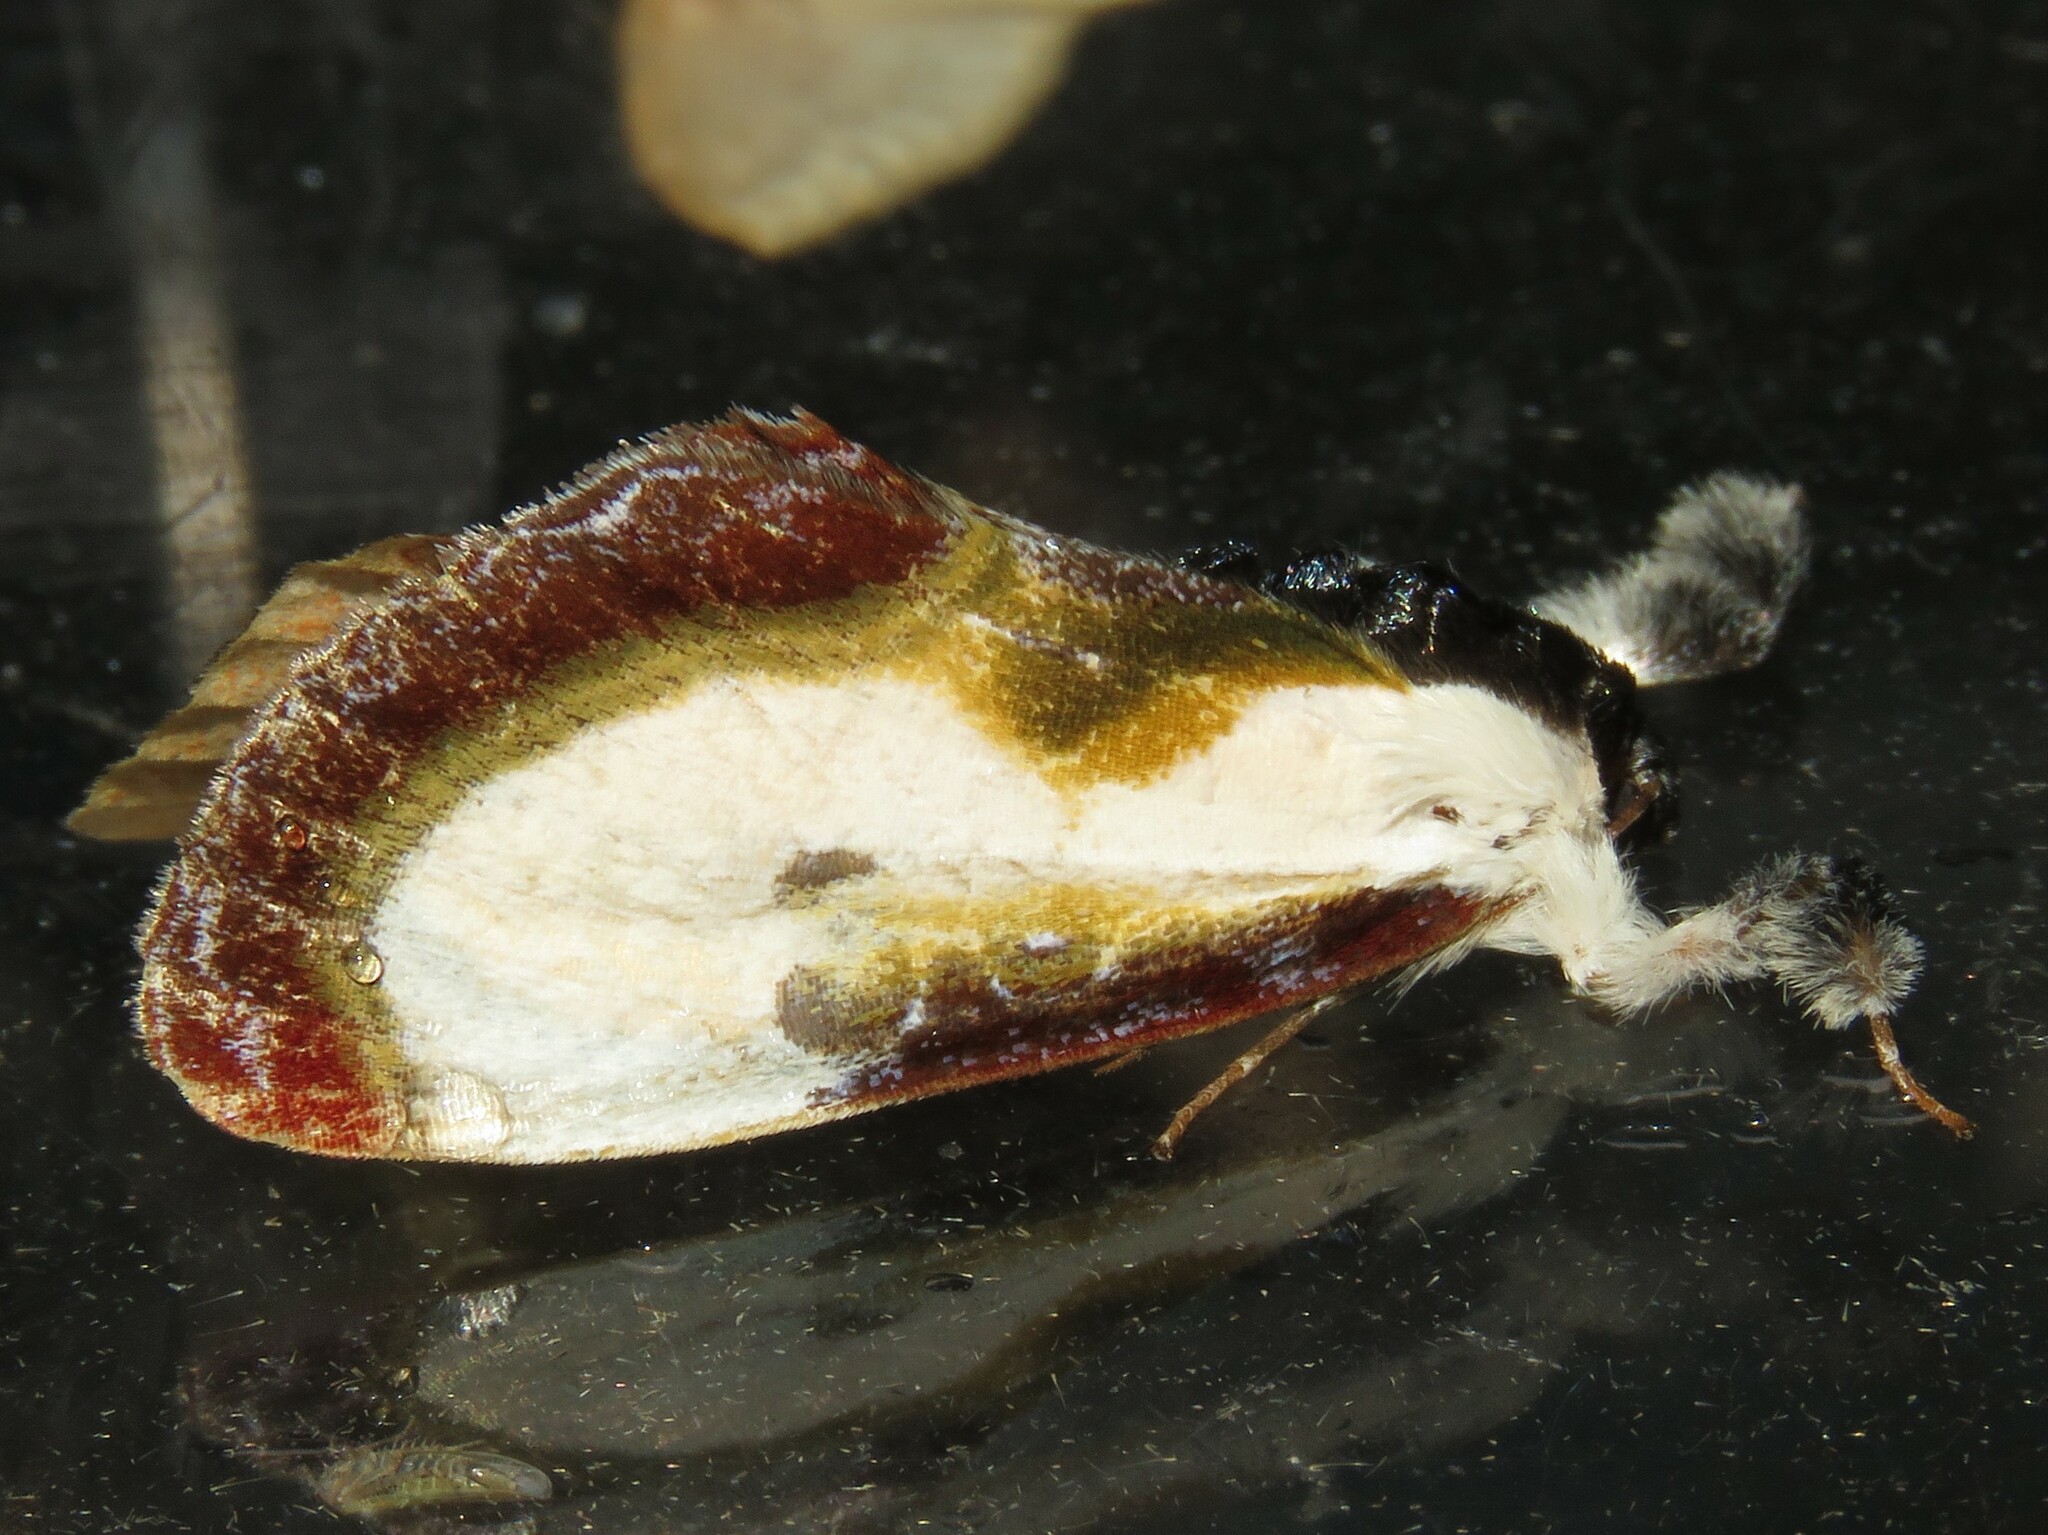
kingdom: Animalia
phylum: Arthropoda
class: Insecta
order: Lepidoptera
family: Noctuidae
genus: Eudryas
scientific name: Eudryas grata
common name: Beautiful wood-nymph
